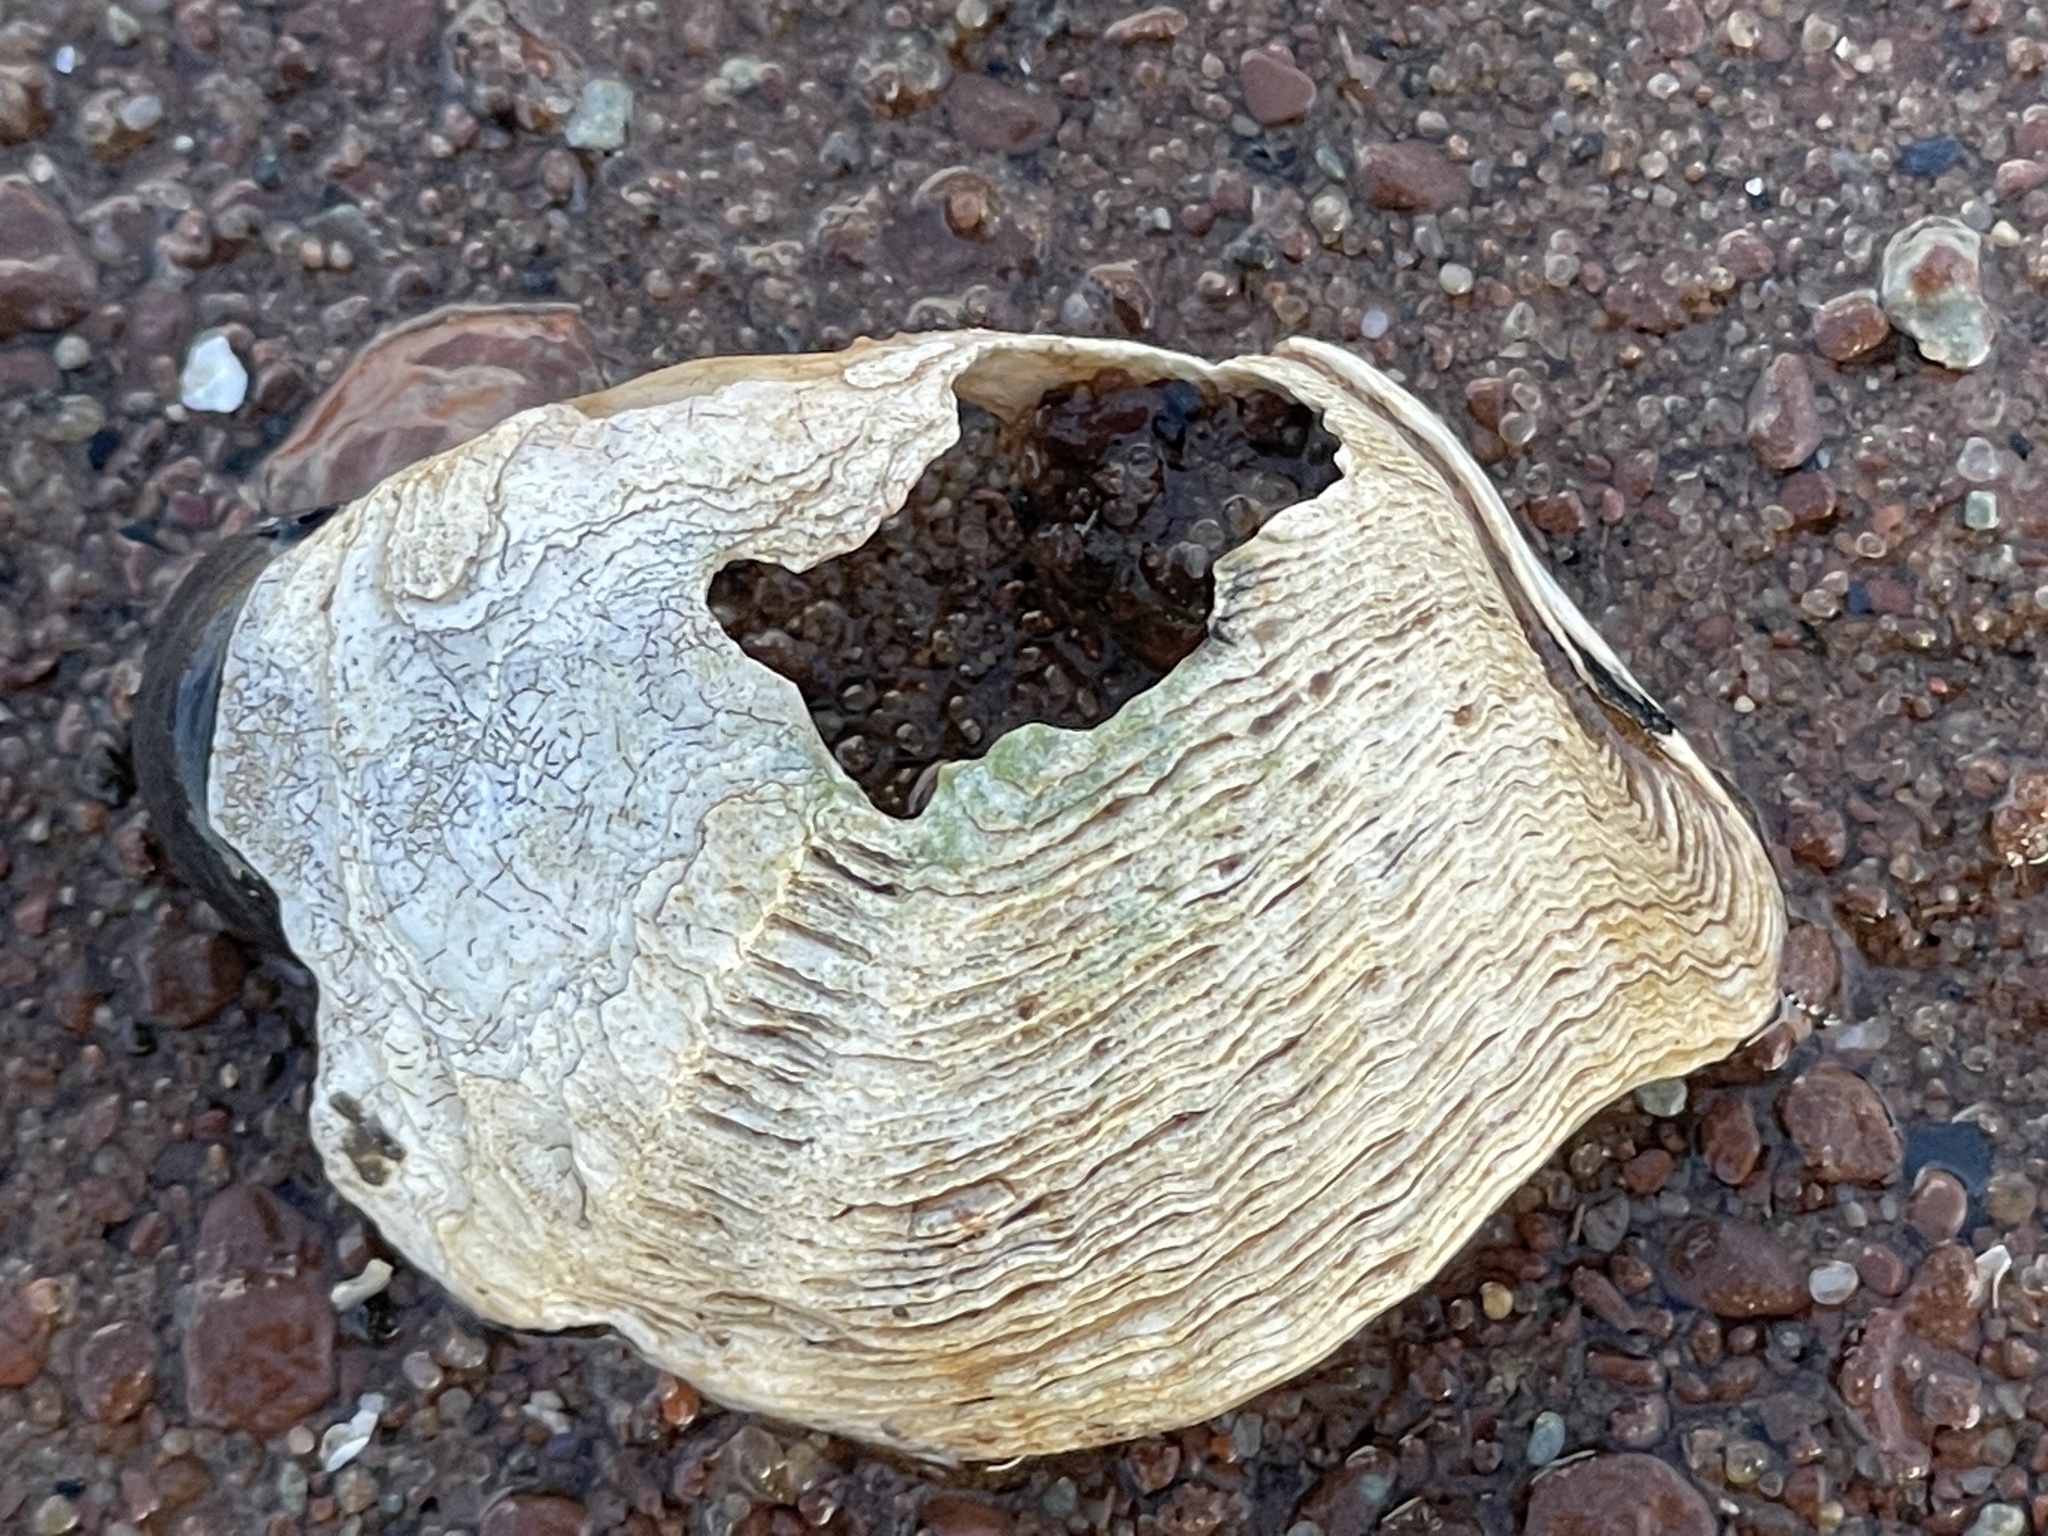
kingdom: Animalia
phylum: Mollusca
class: Bivalvia
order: Myida
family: Pholadidae
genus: Zirfaea
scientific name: Zirfaea crispata
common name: Oval piddock
